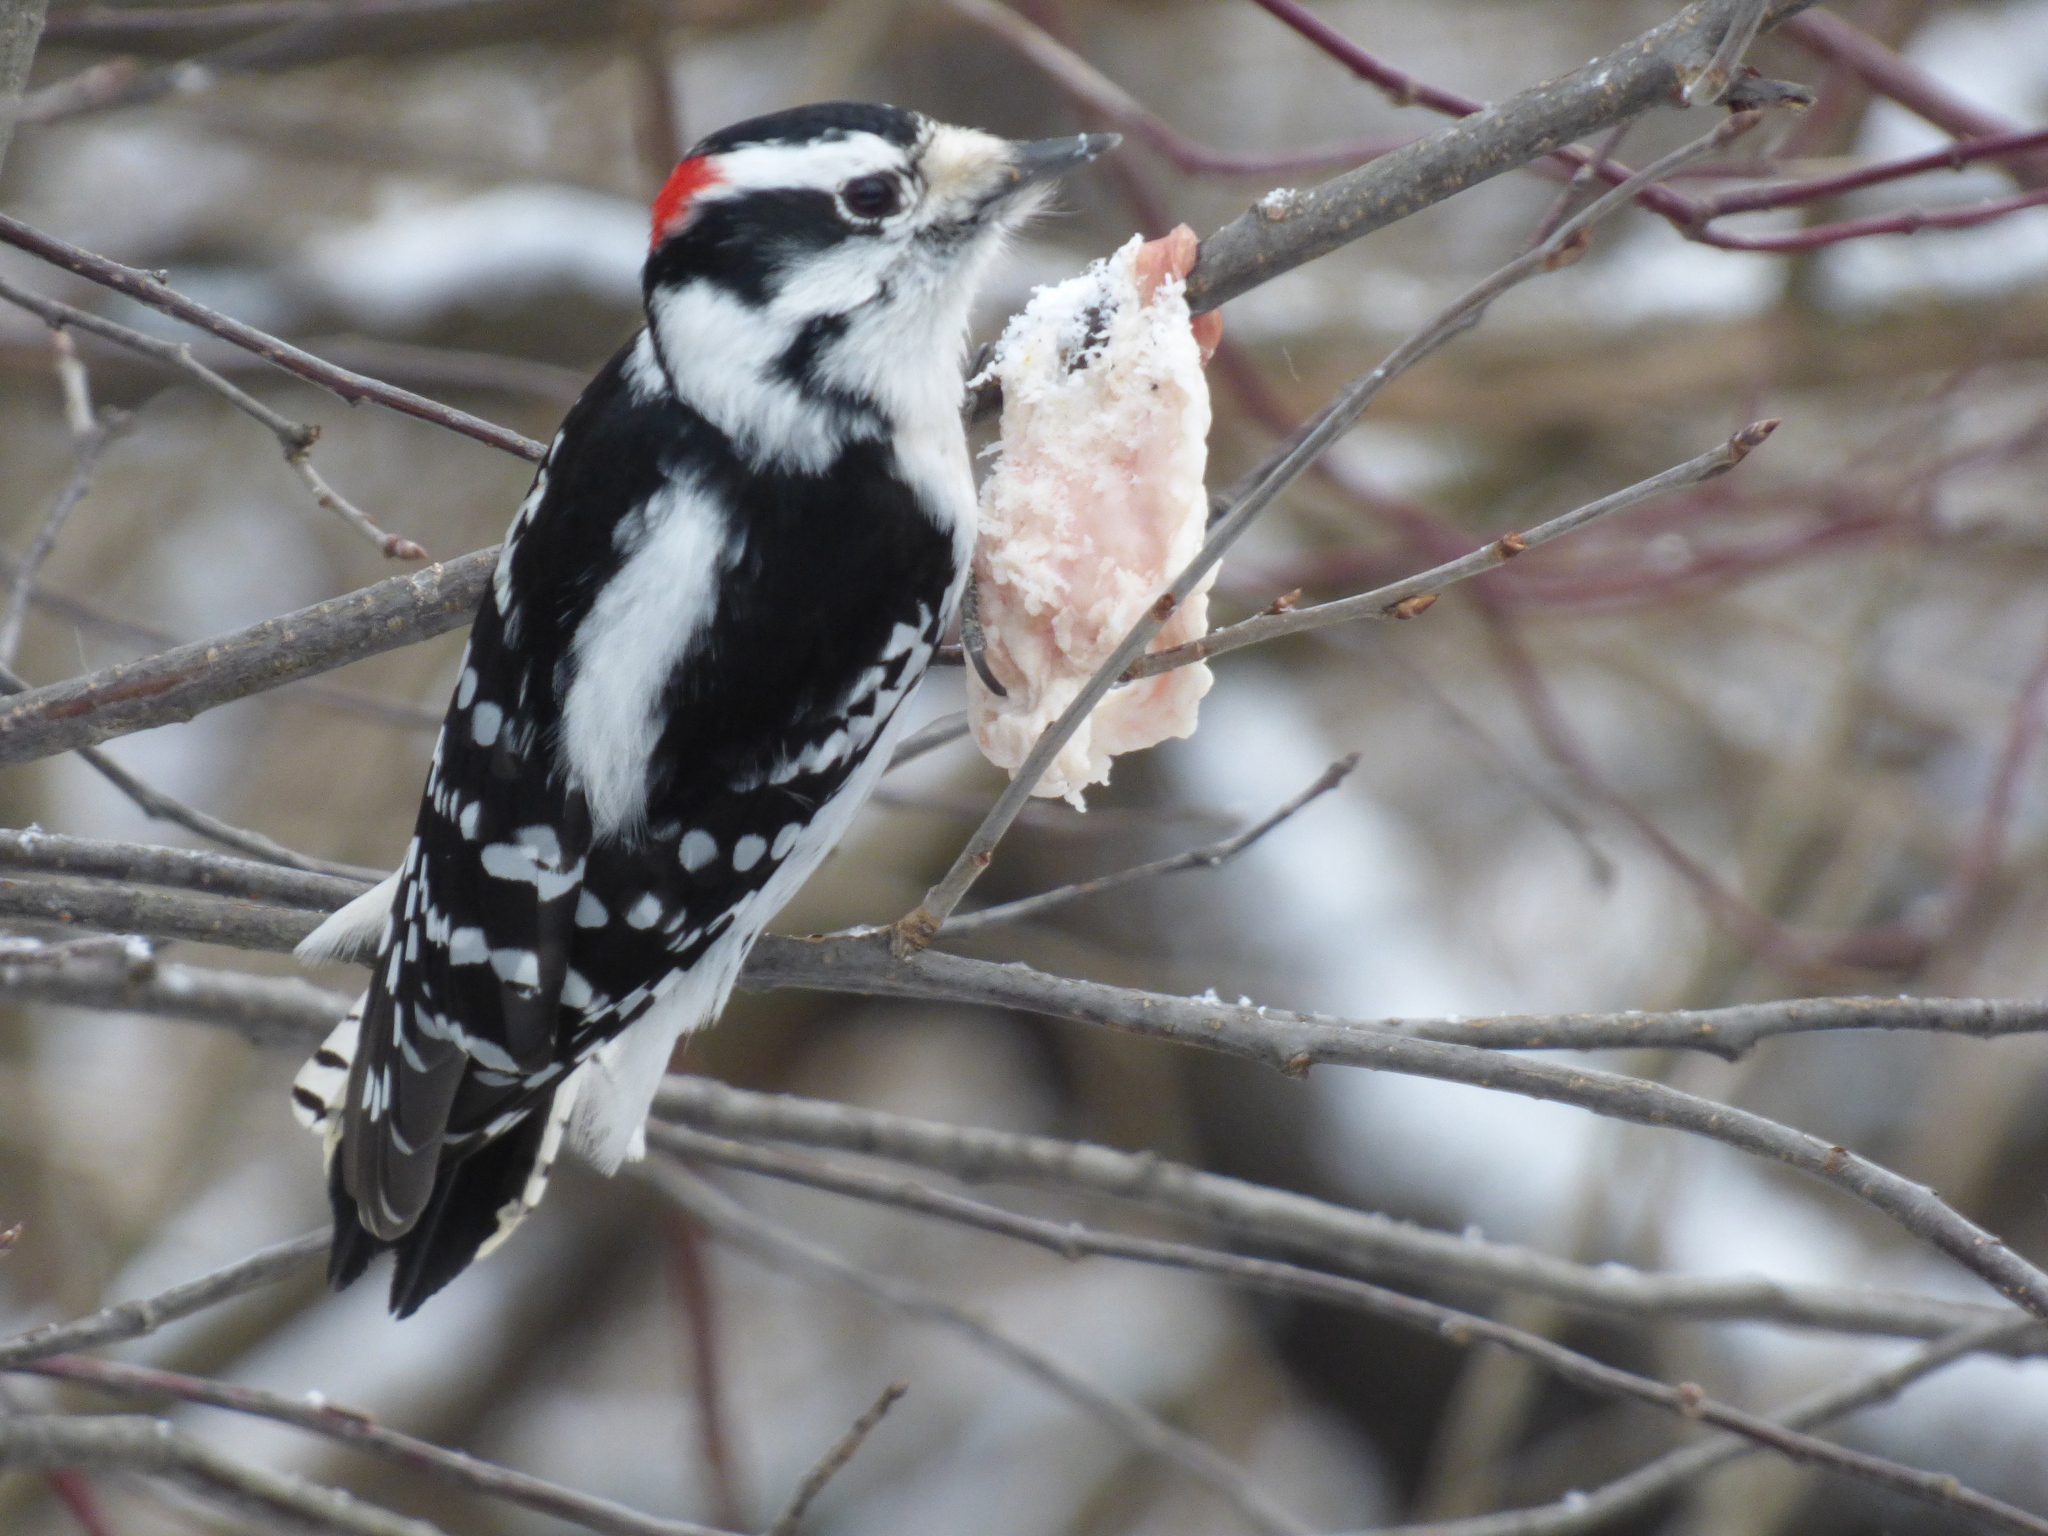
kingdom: Animalia
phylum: Chordata
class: Aves
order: Piciformes
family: Picidae
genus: Dryobates
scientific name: Dryobates pubescens
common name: Downy woodpecker
